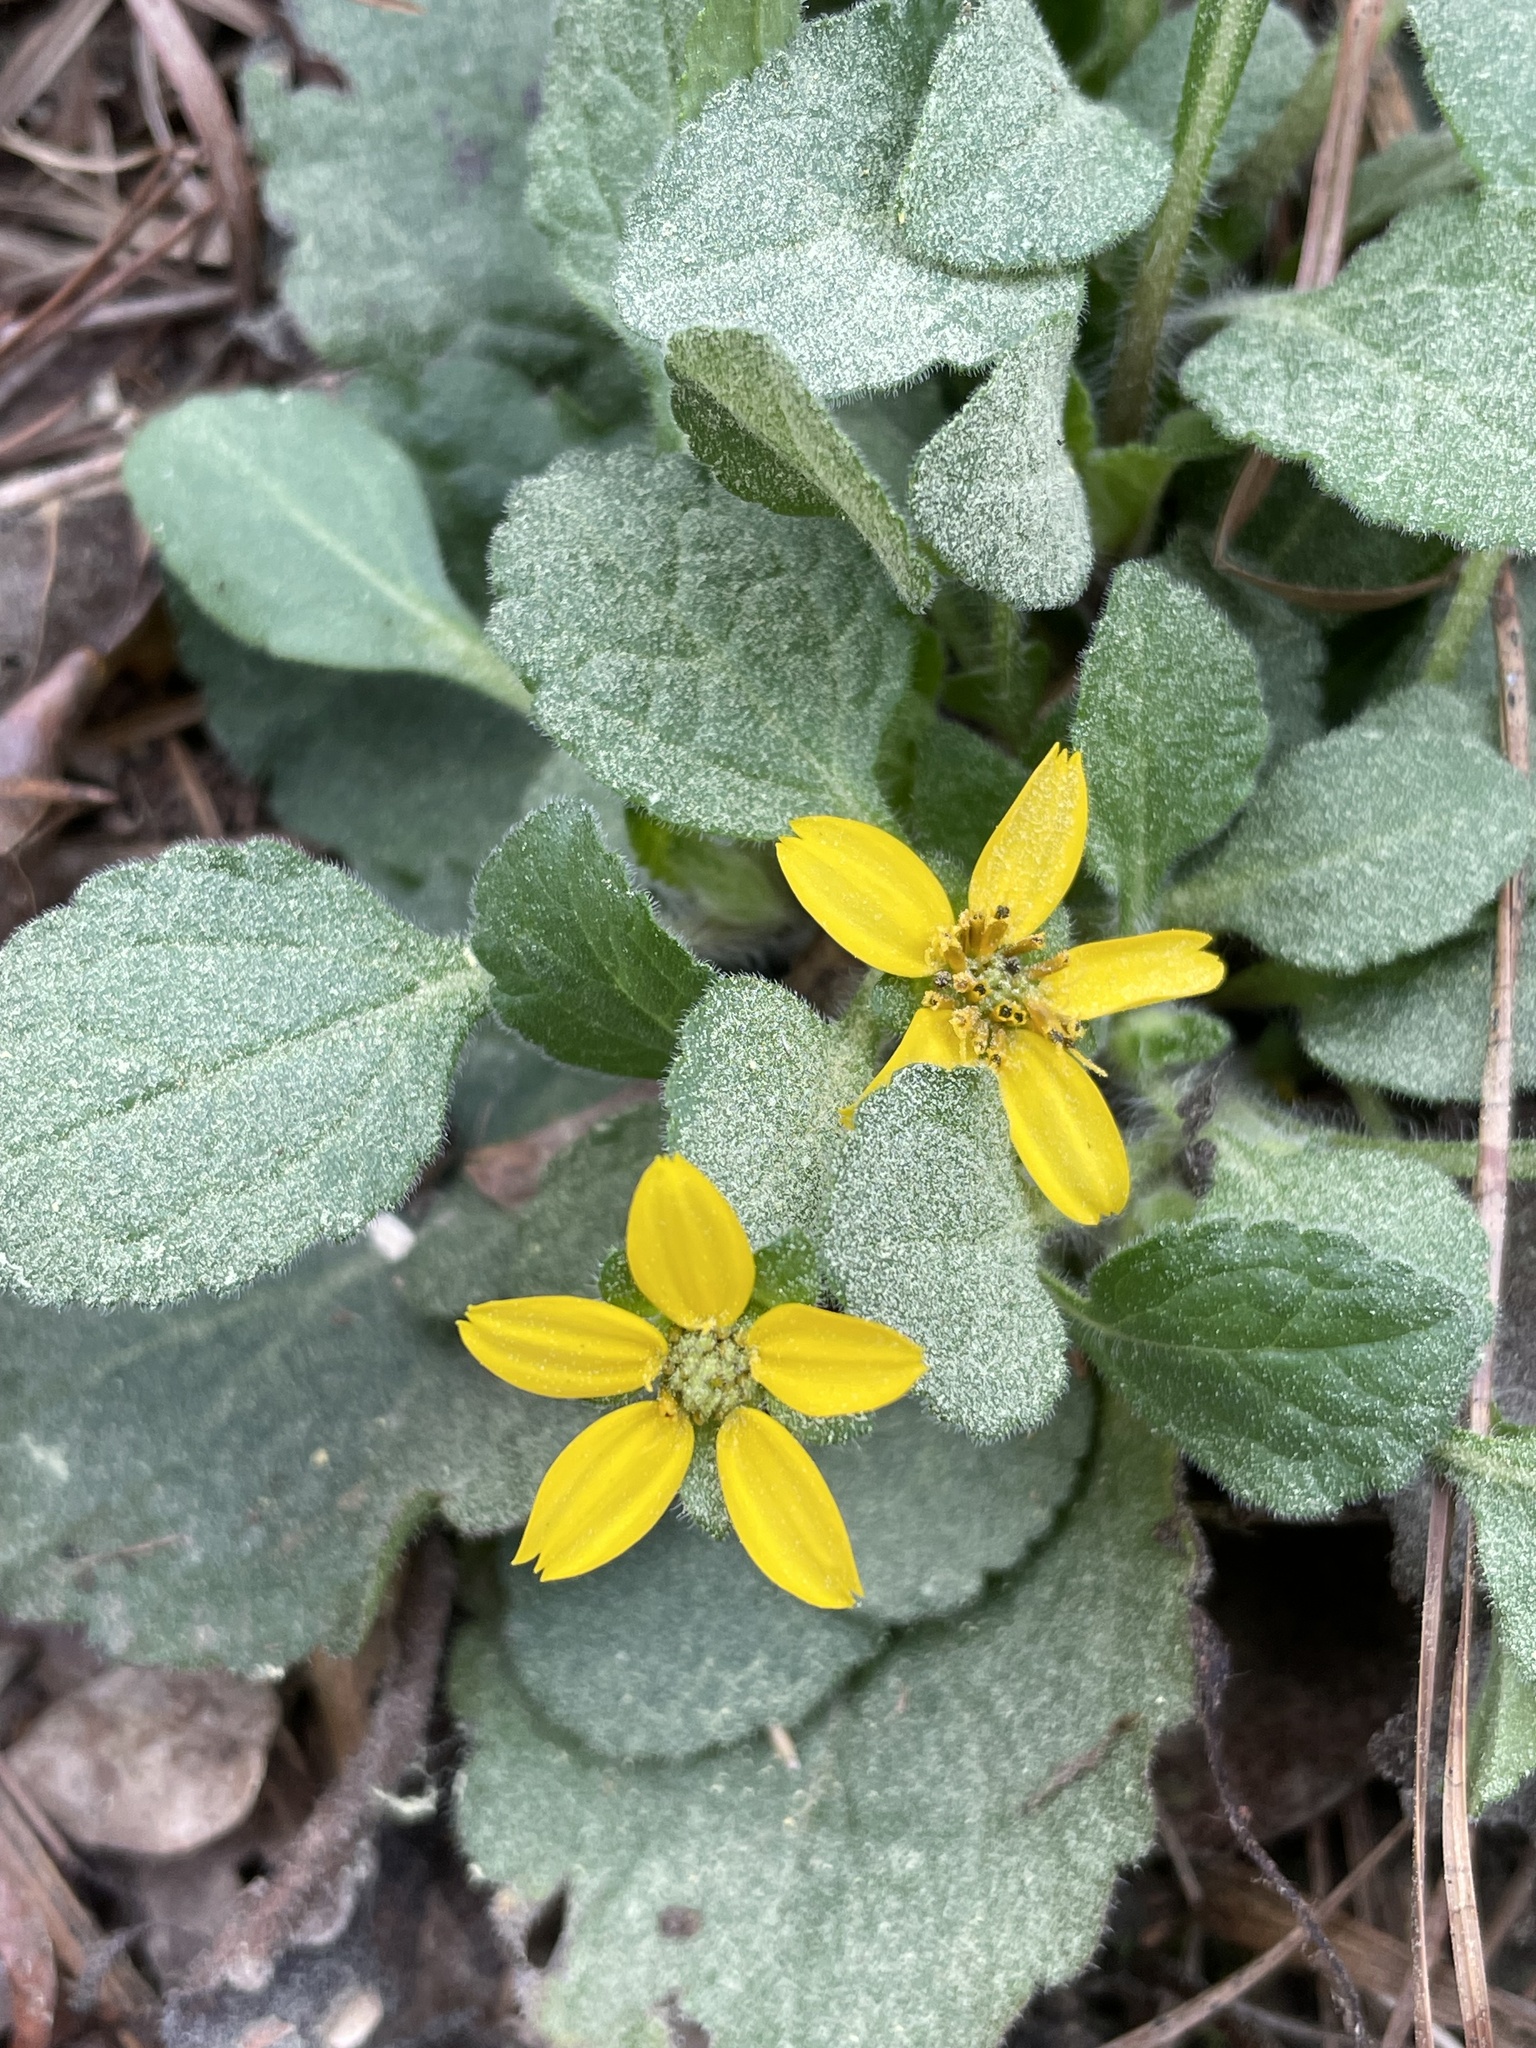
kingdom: Plantae
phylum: Tracheophyta
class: Magnoliopsida
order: Asterales
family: Asteraceae
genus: Chrysogonum
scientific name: Chrysogonum virginianum
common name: Golden-knee
